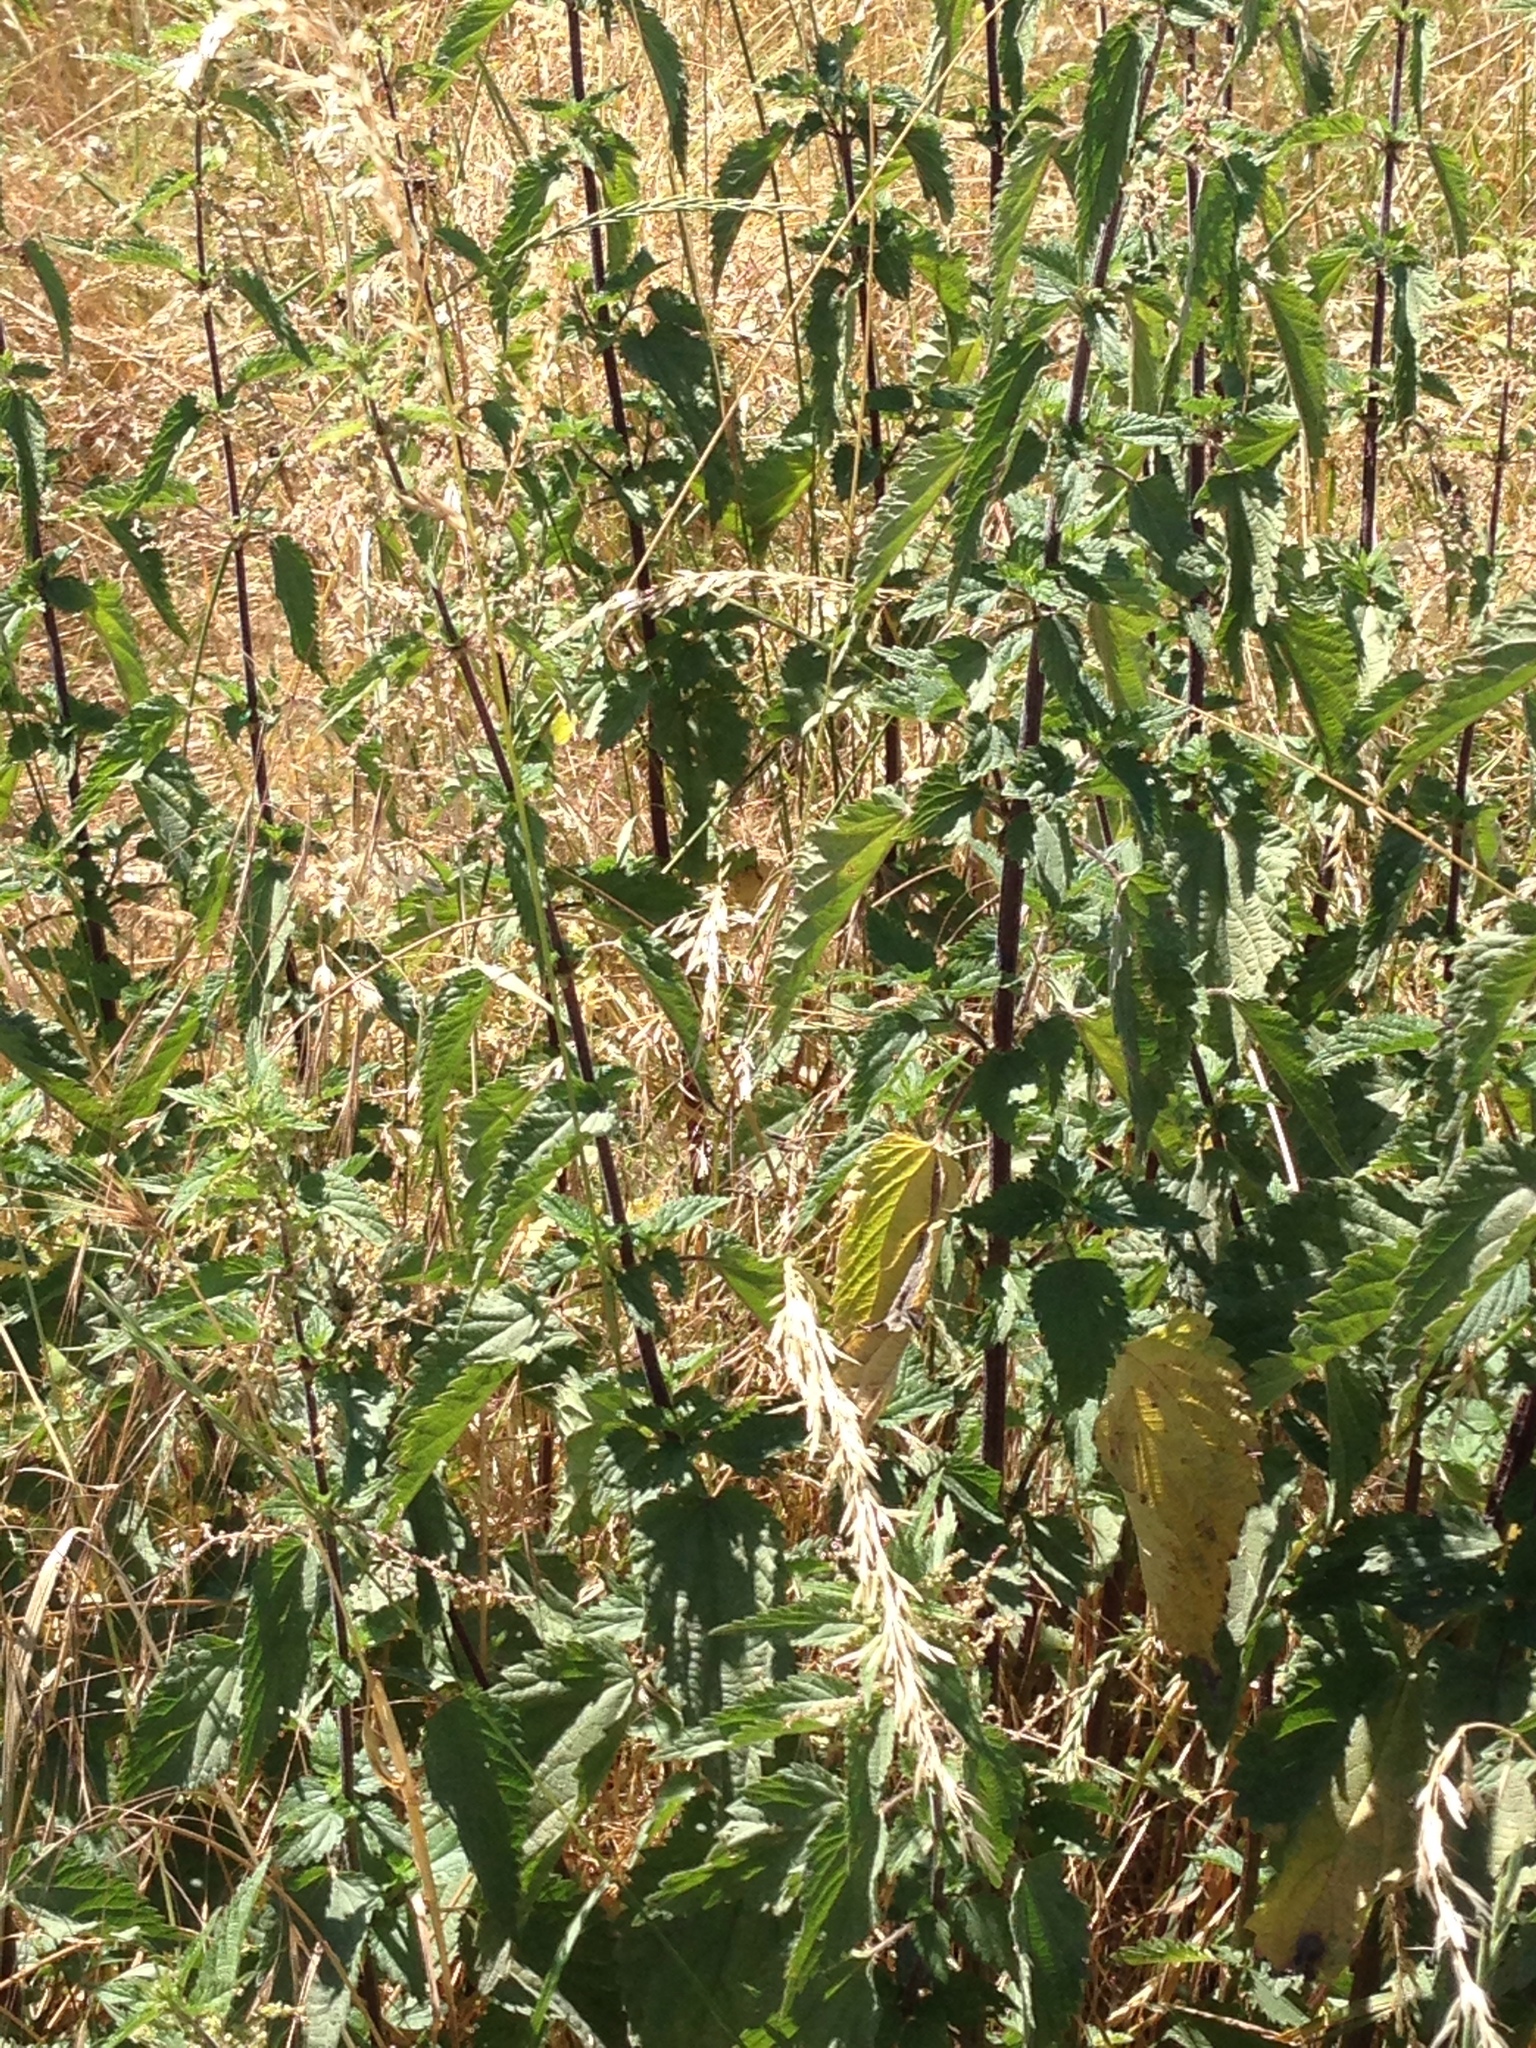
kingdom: Plantae
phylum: Tracheophyta
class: Magnoliopsida
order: Rosales
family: Urticaceae
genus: Urtica
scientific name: Urtica dioica
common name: Common nettle
